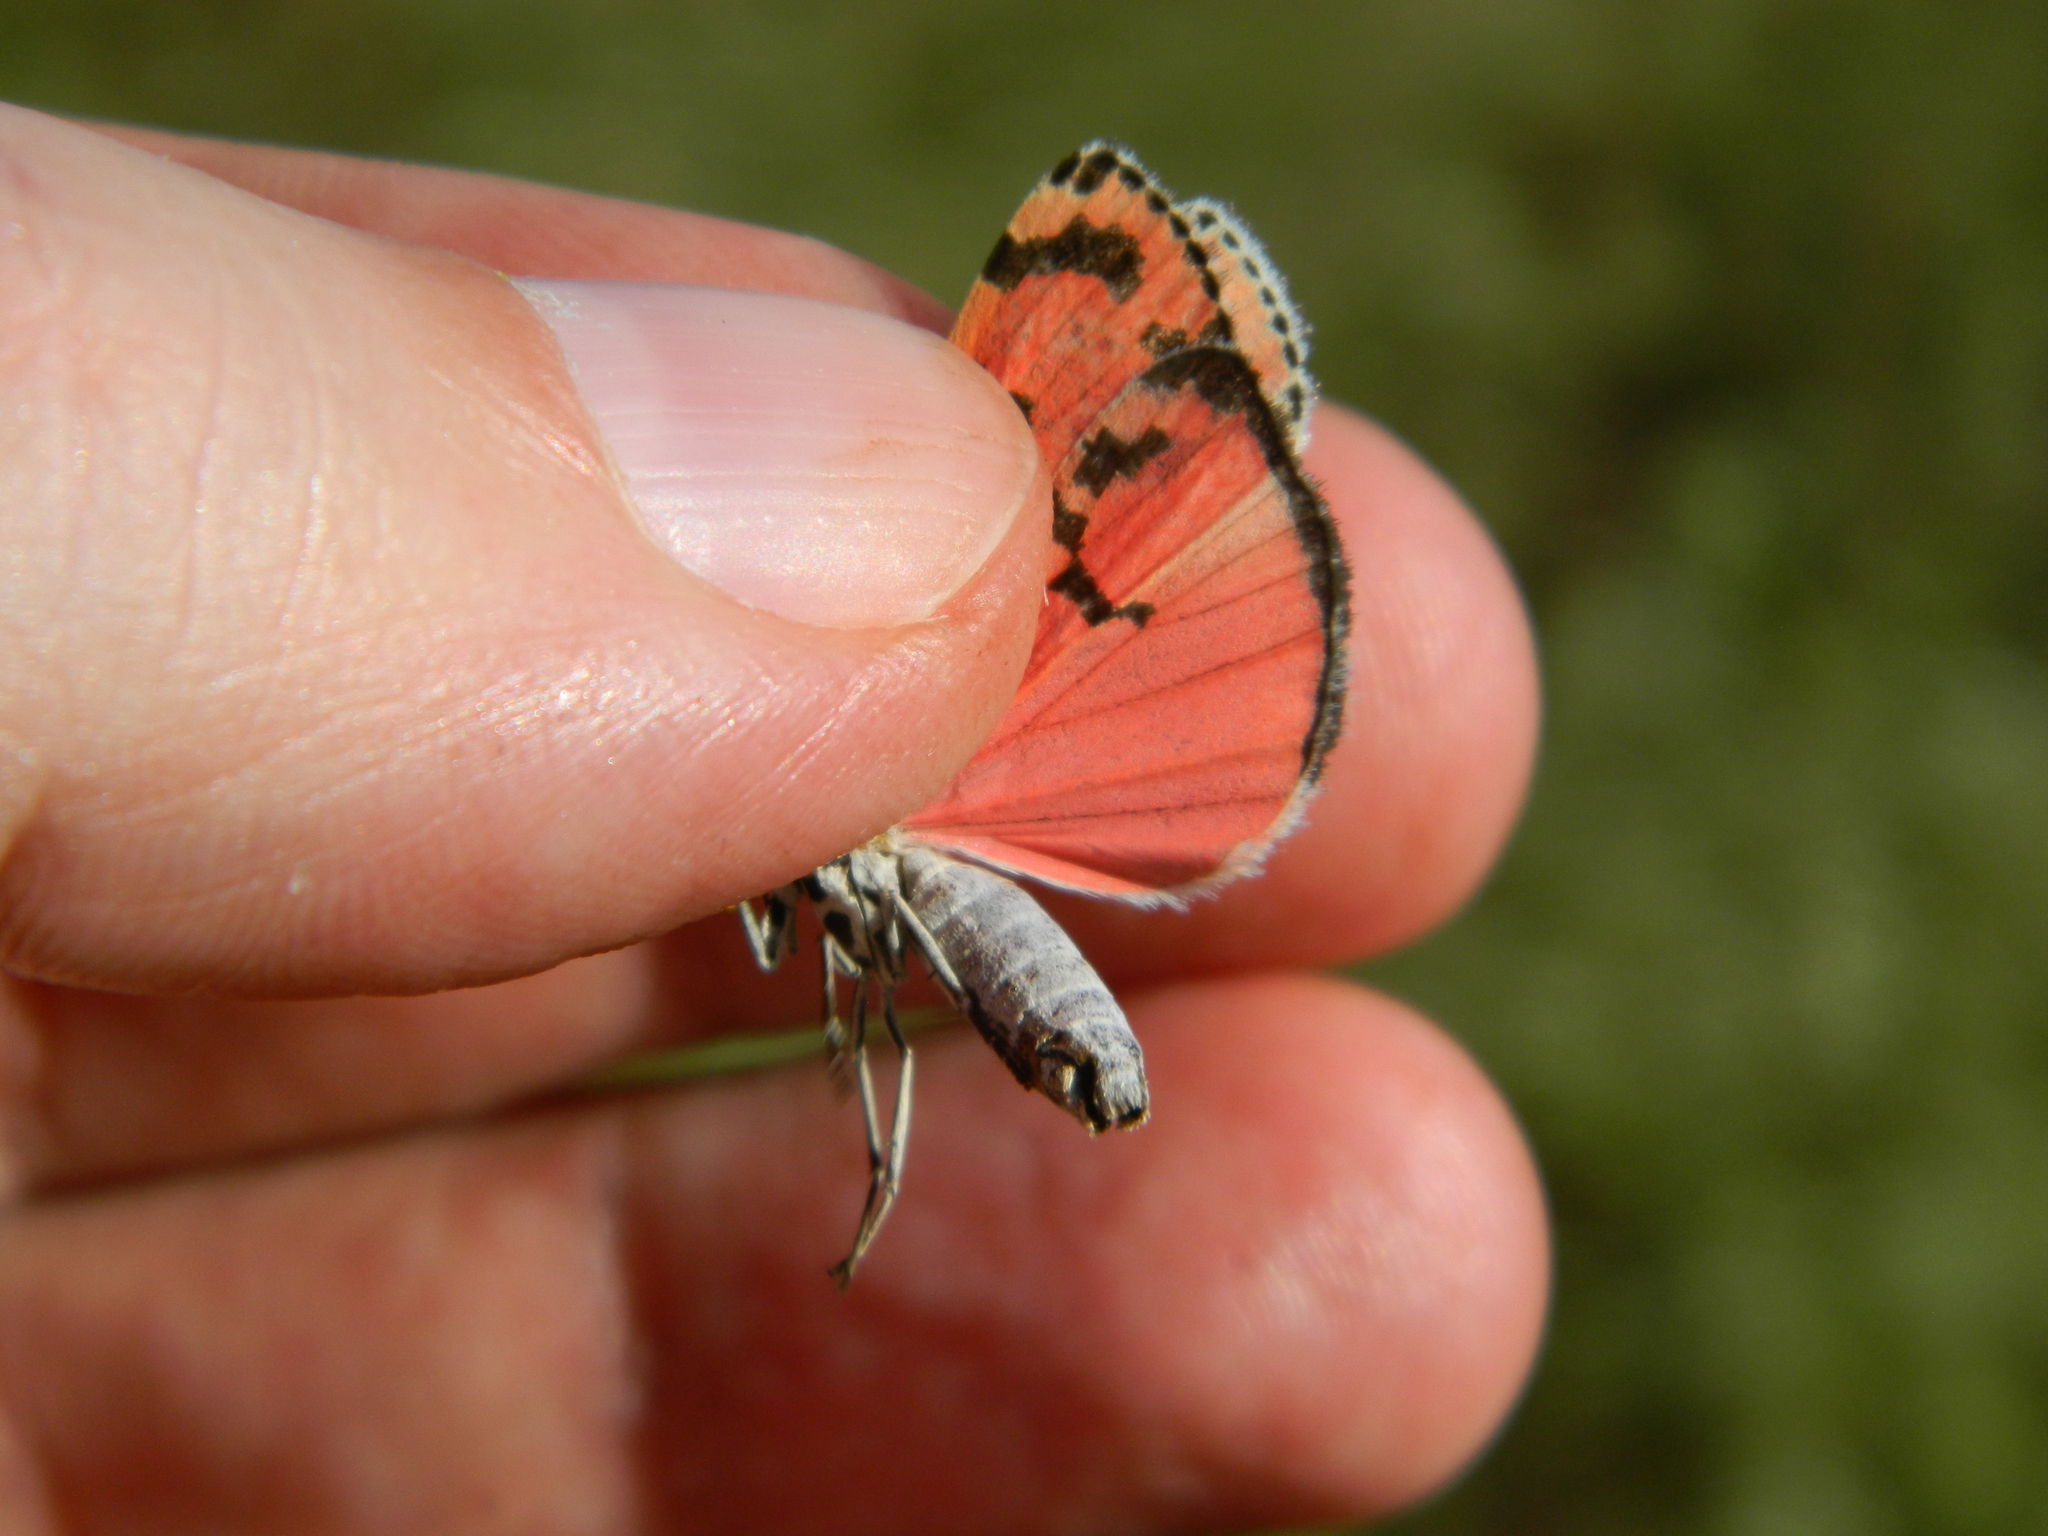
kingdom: Animalia
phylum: Arthropoda
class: Insecta
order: Lepidoptera
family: Erebidae
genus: Utetheisa
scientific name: Utetheisa ornatrix
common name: Beautiful utetheisa
